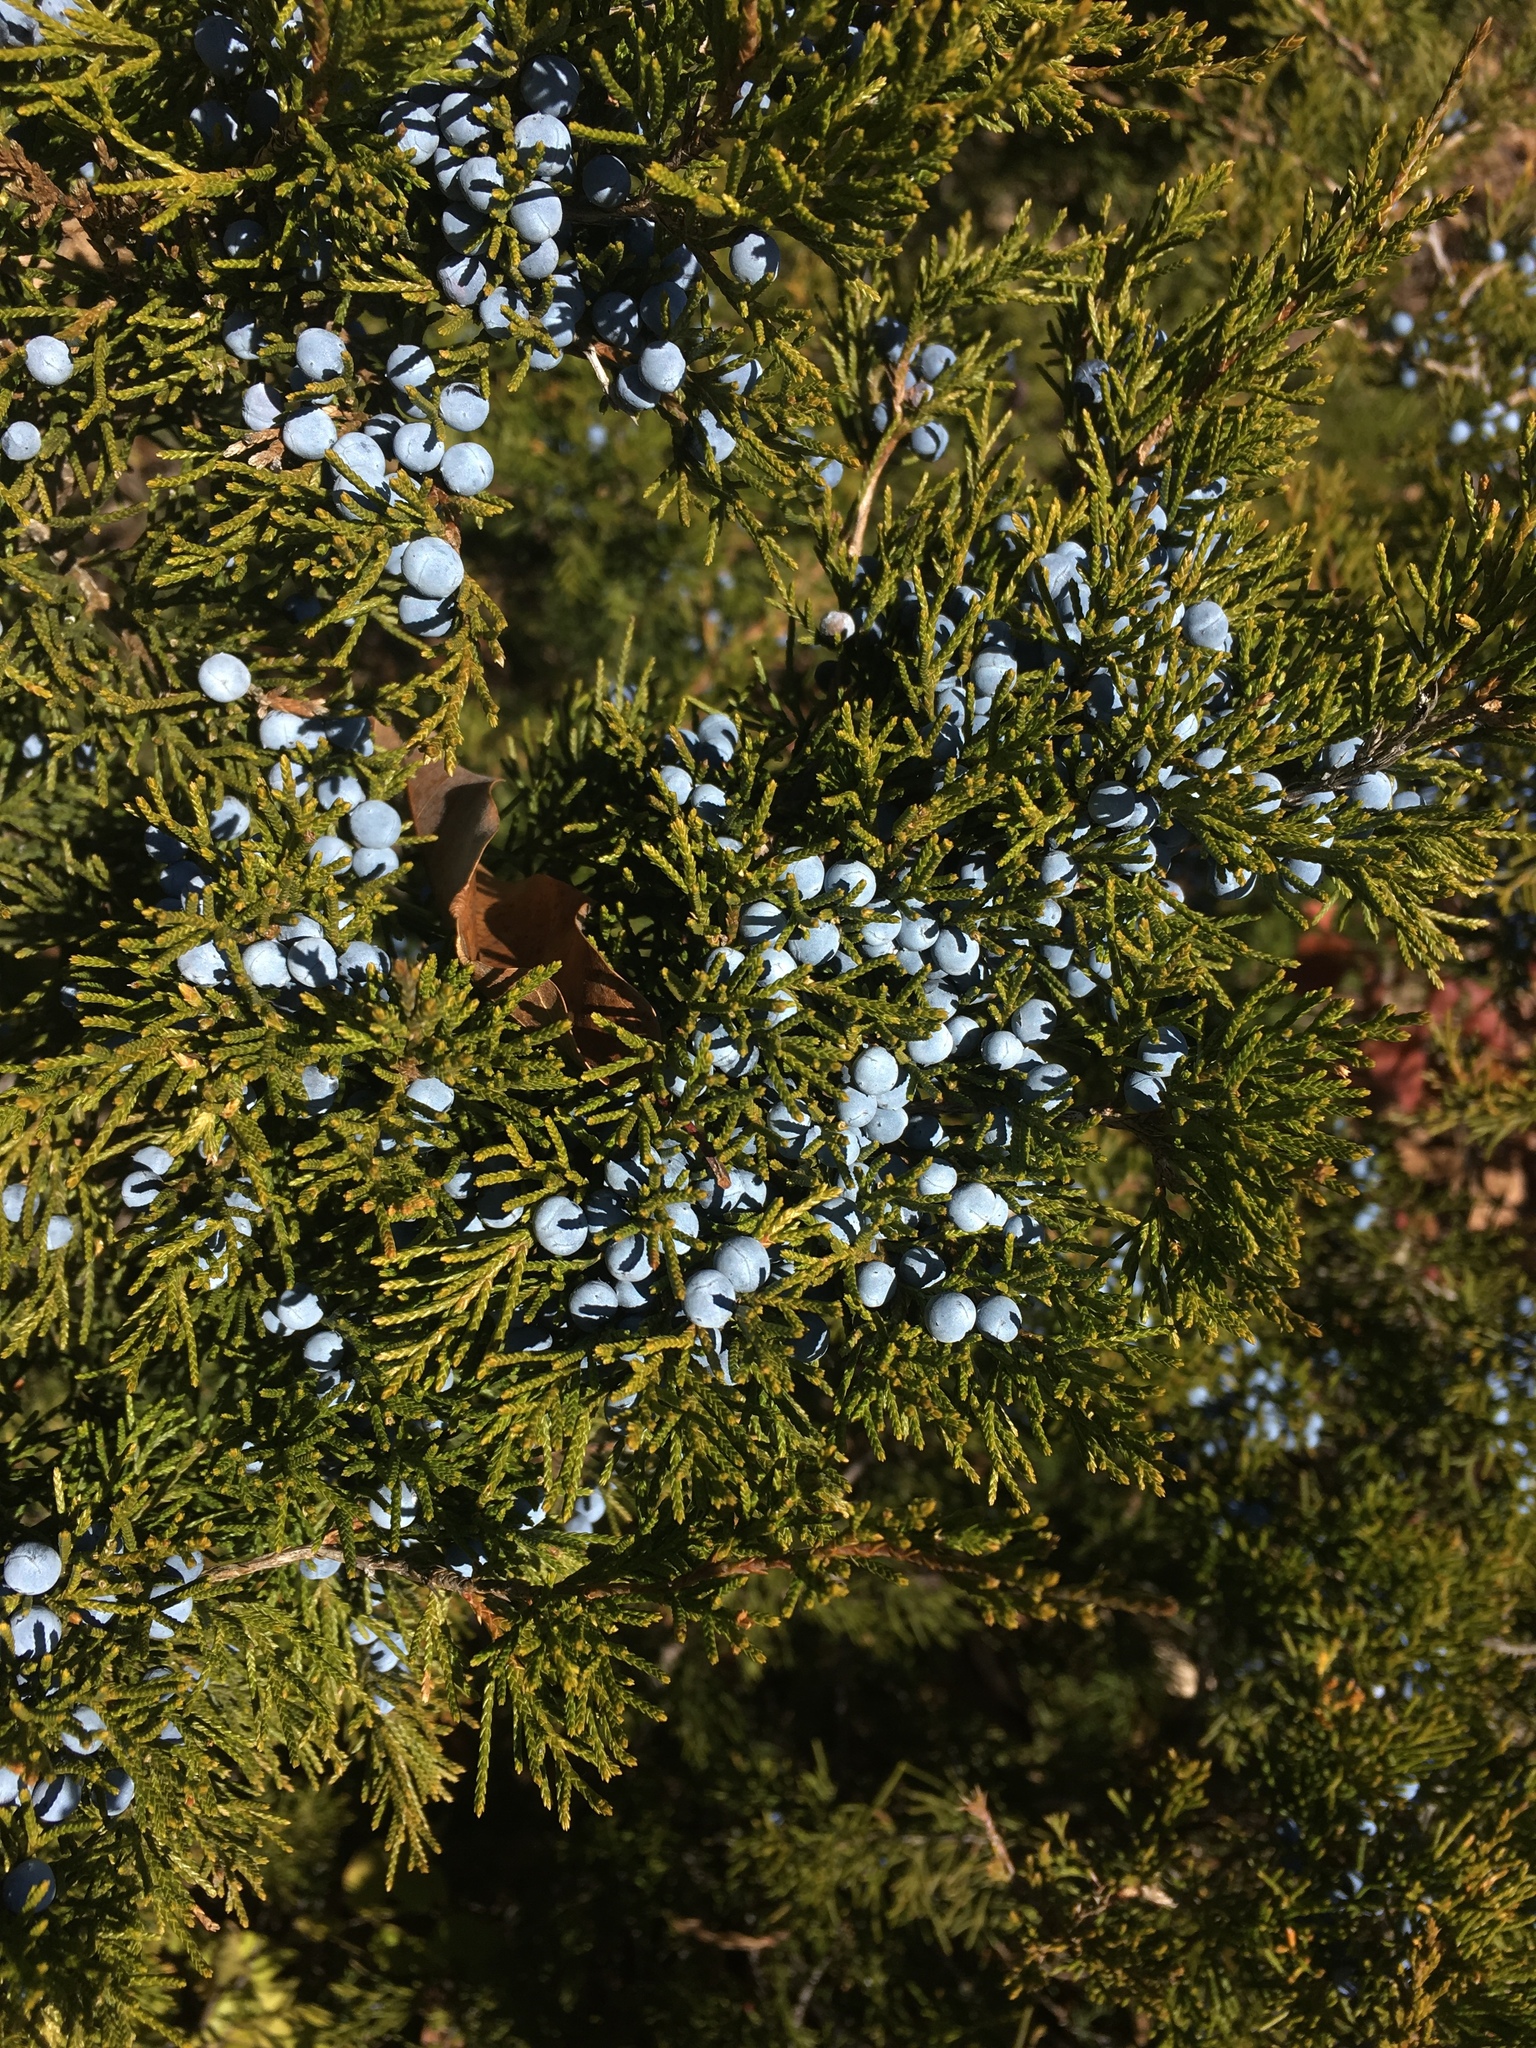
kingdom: Plantae
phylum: Tracheophyta
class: Pinopsida
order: Pinales
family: Cupressaceae
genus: Juniperus
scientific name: Juniperus virginiana
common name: Red juniper
